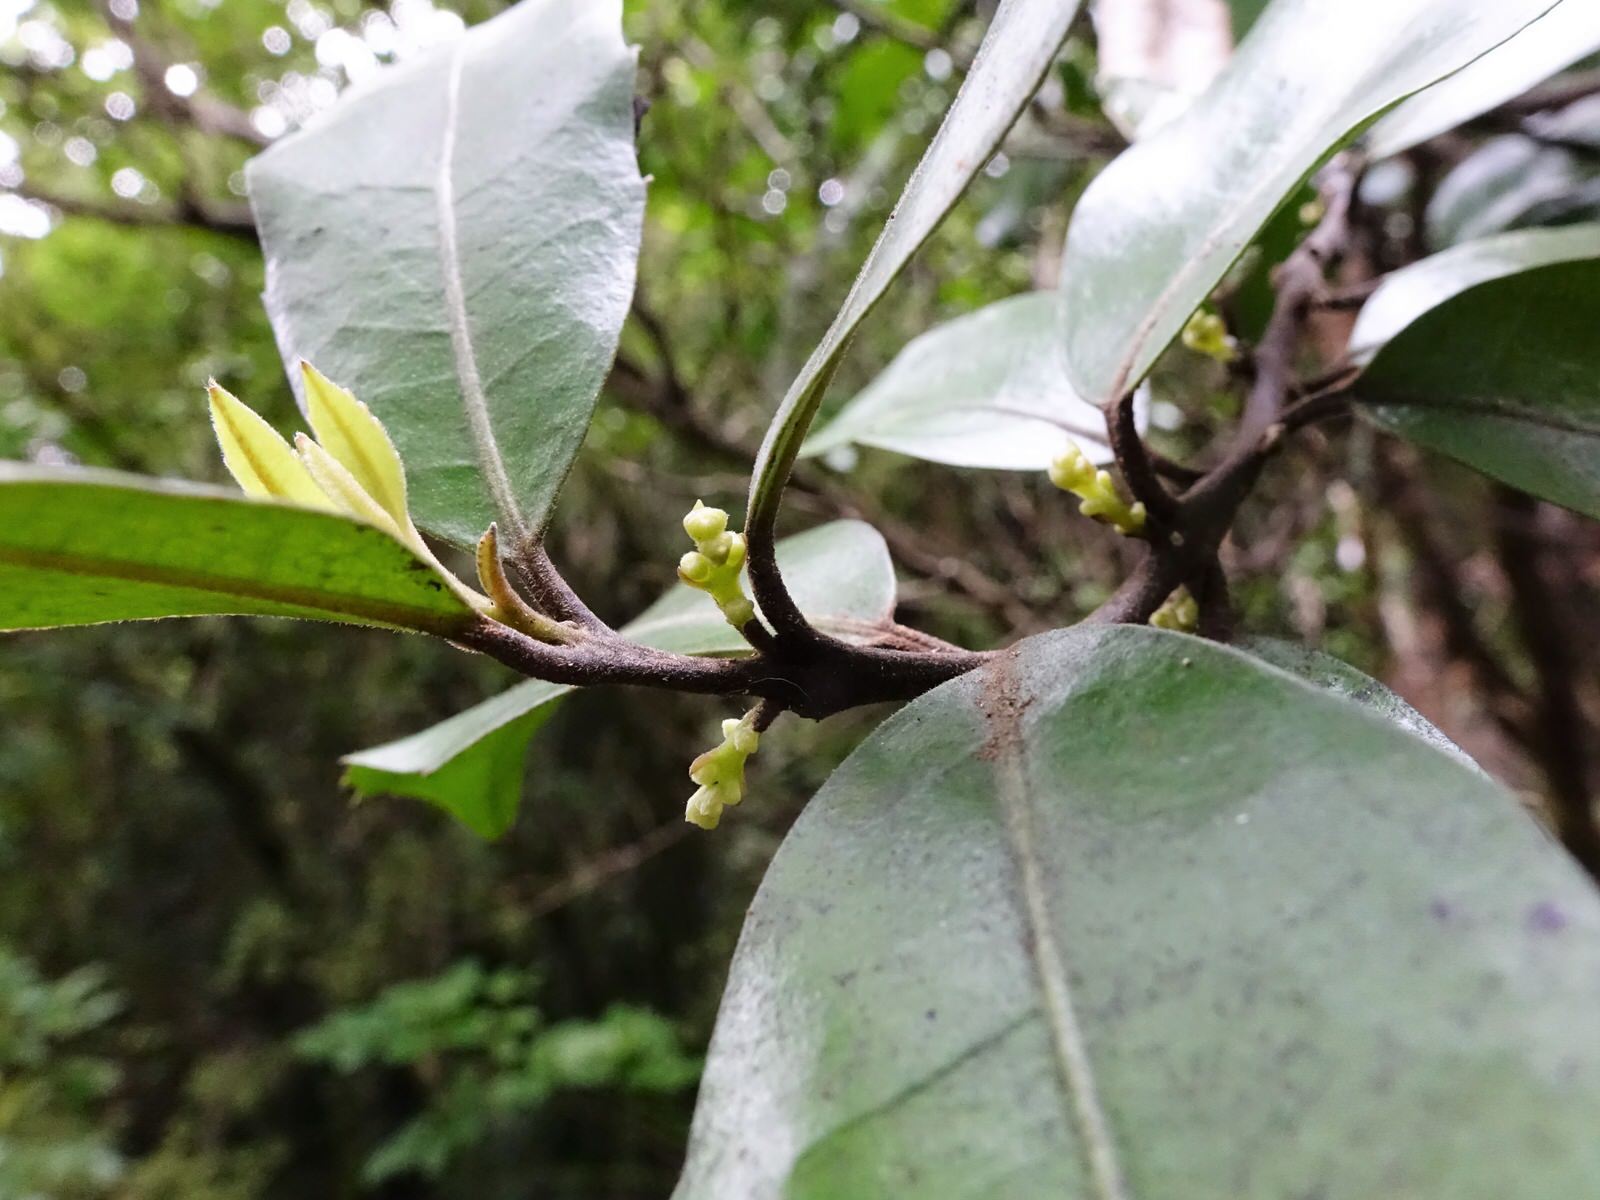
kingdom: Plantae
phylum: Tracheophyta
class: Magnoliopsida
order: Laurales
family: Monimiaceae
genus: Hedycarya
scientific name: Hedycarya arborea
